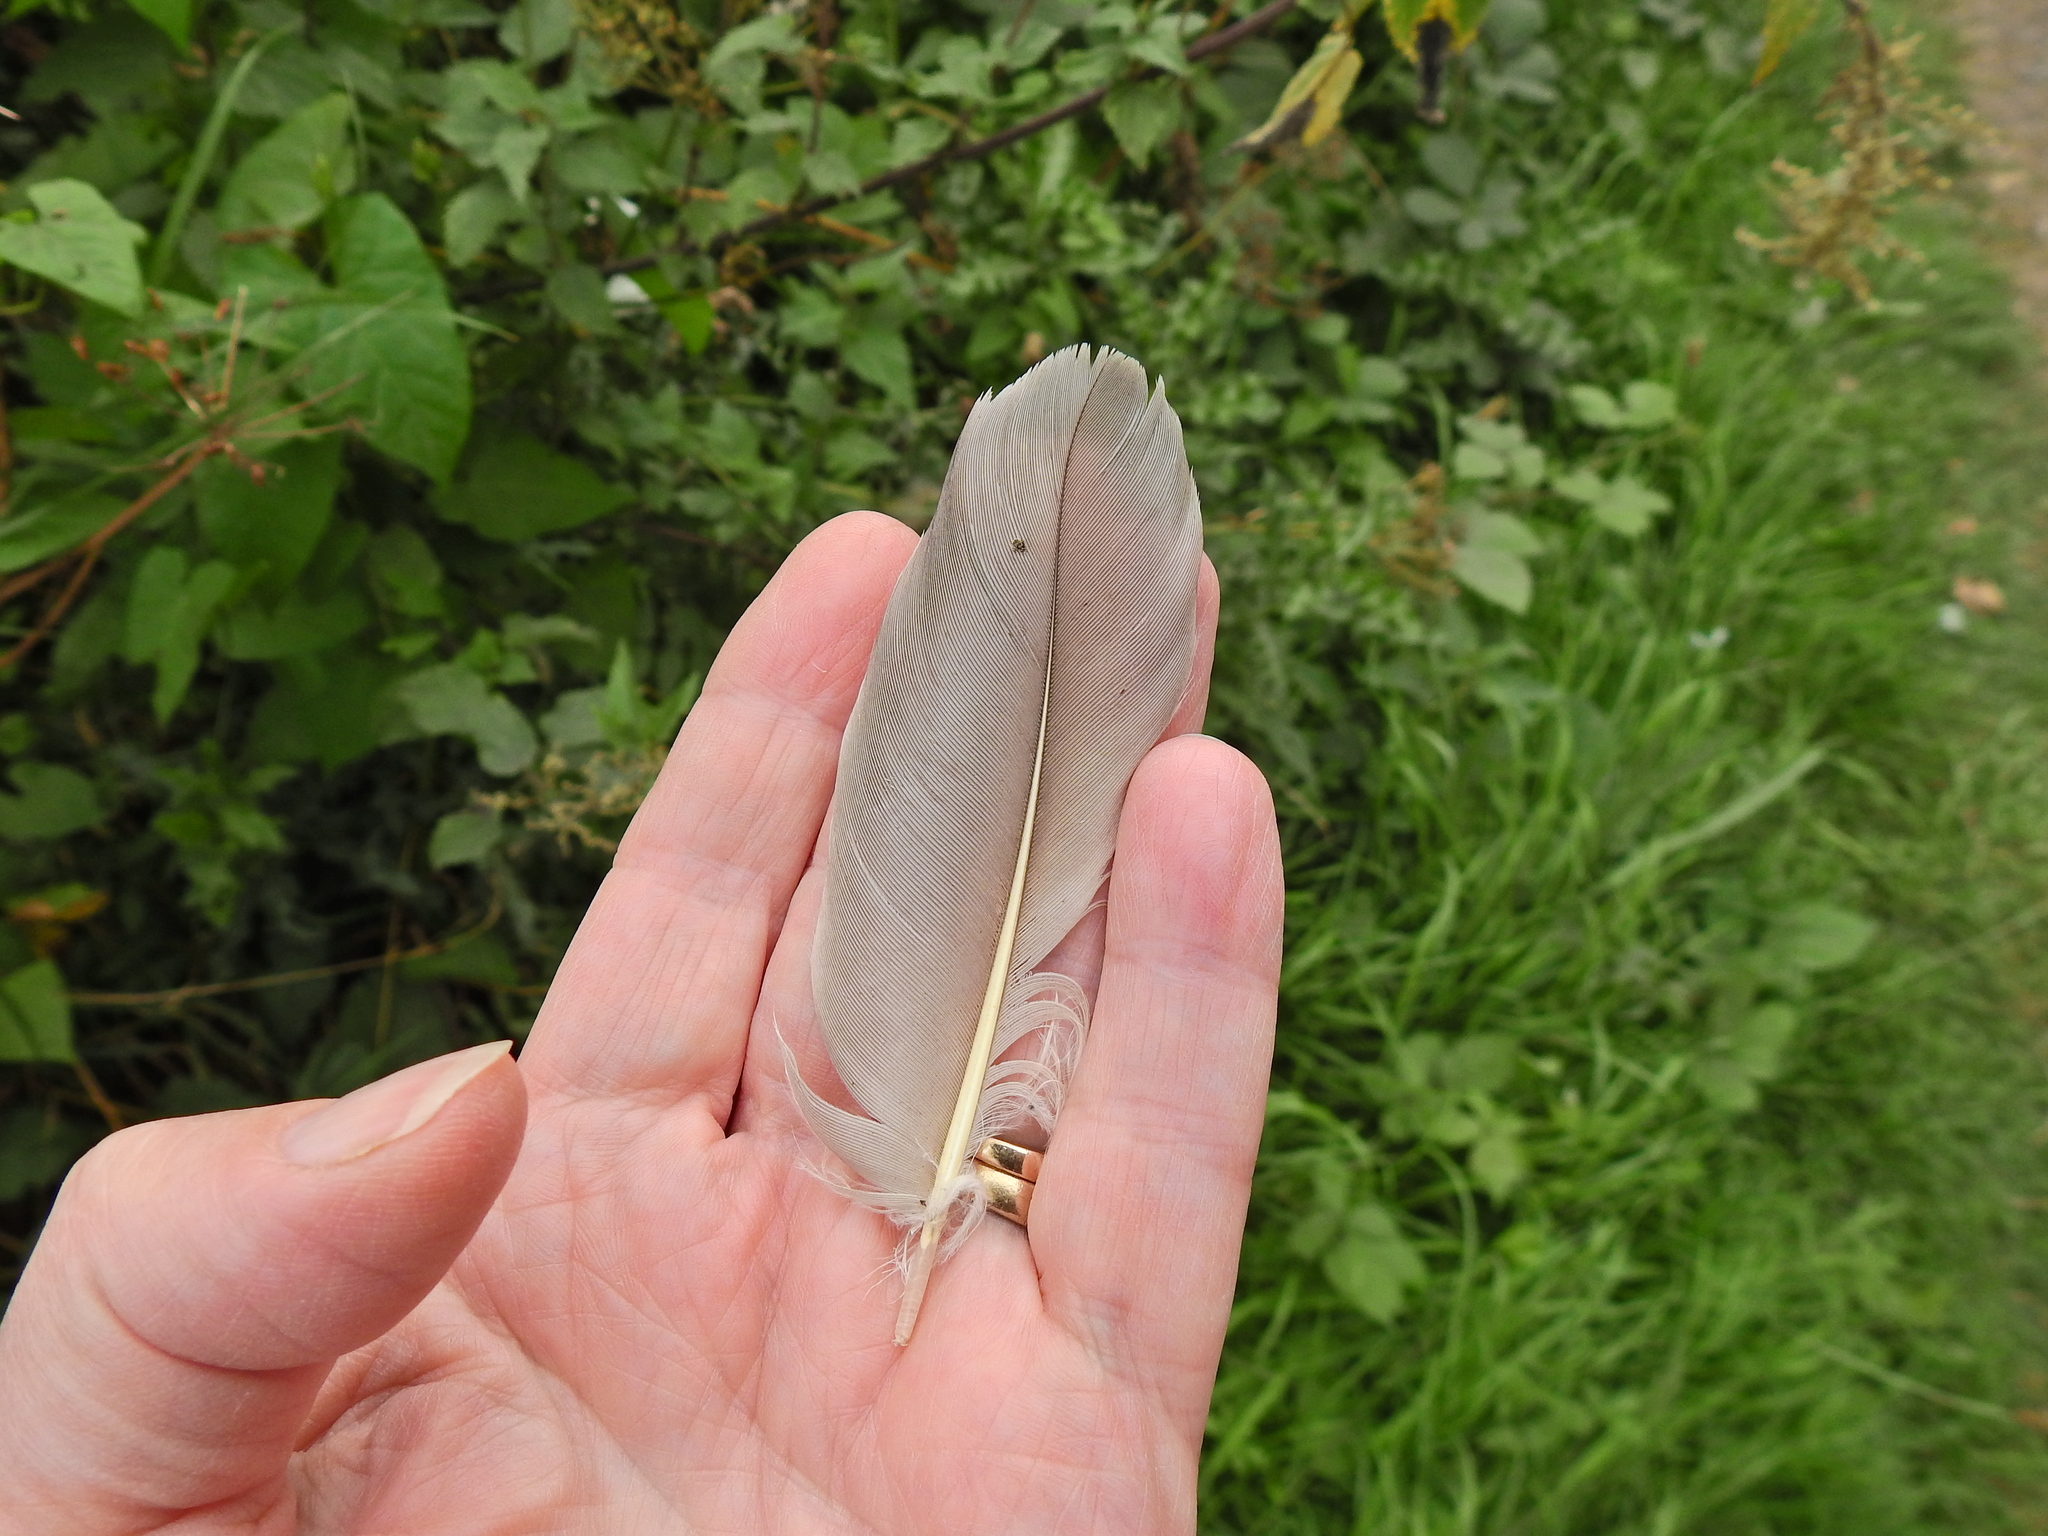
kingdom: Animalia
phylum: Chordata
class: Aves
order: Anseriformes
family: Anatidae
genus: Anser
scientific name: Anser anser
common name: Greylag goose
